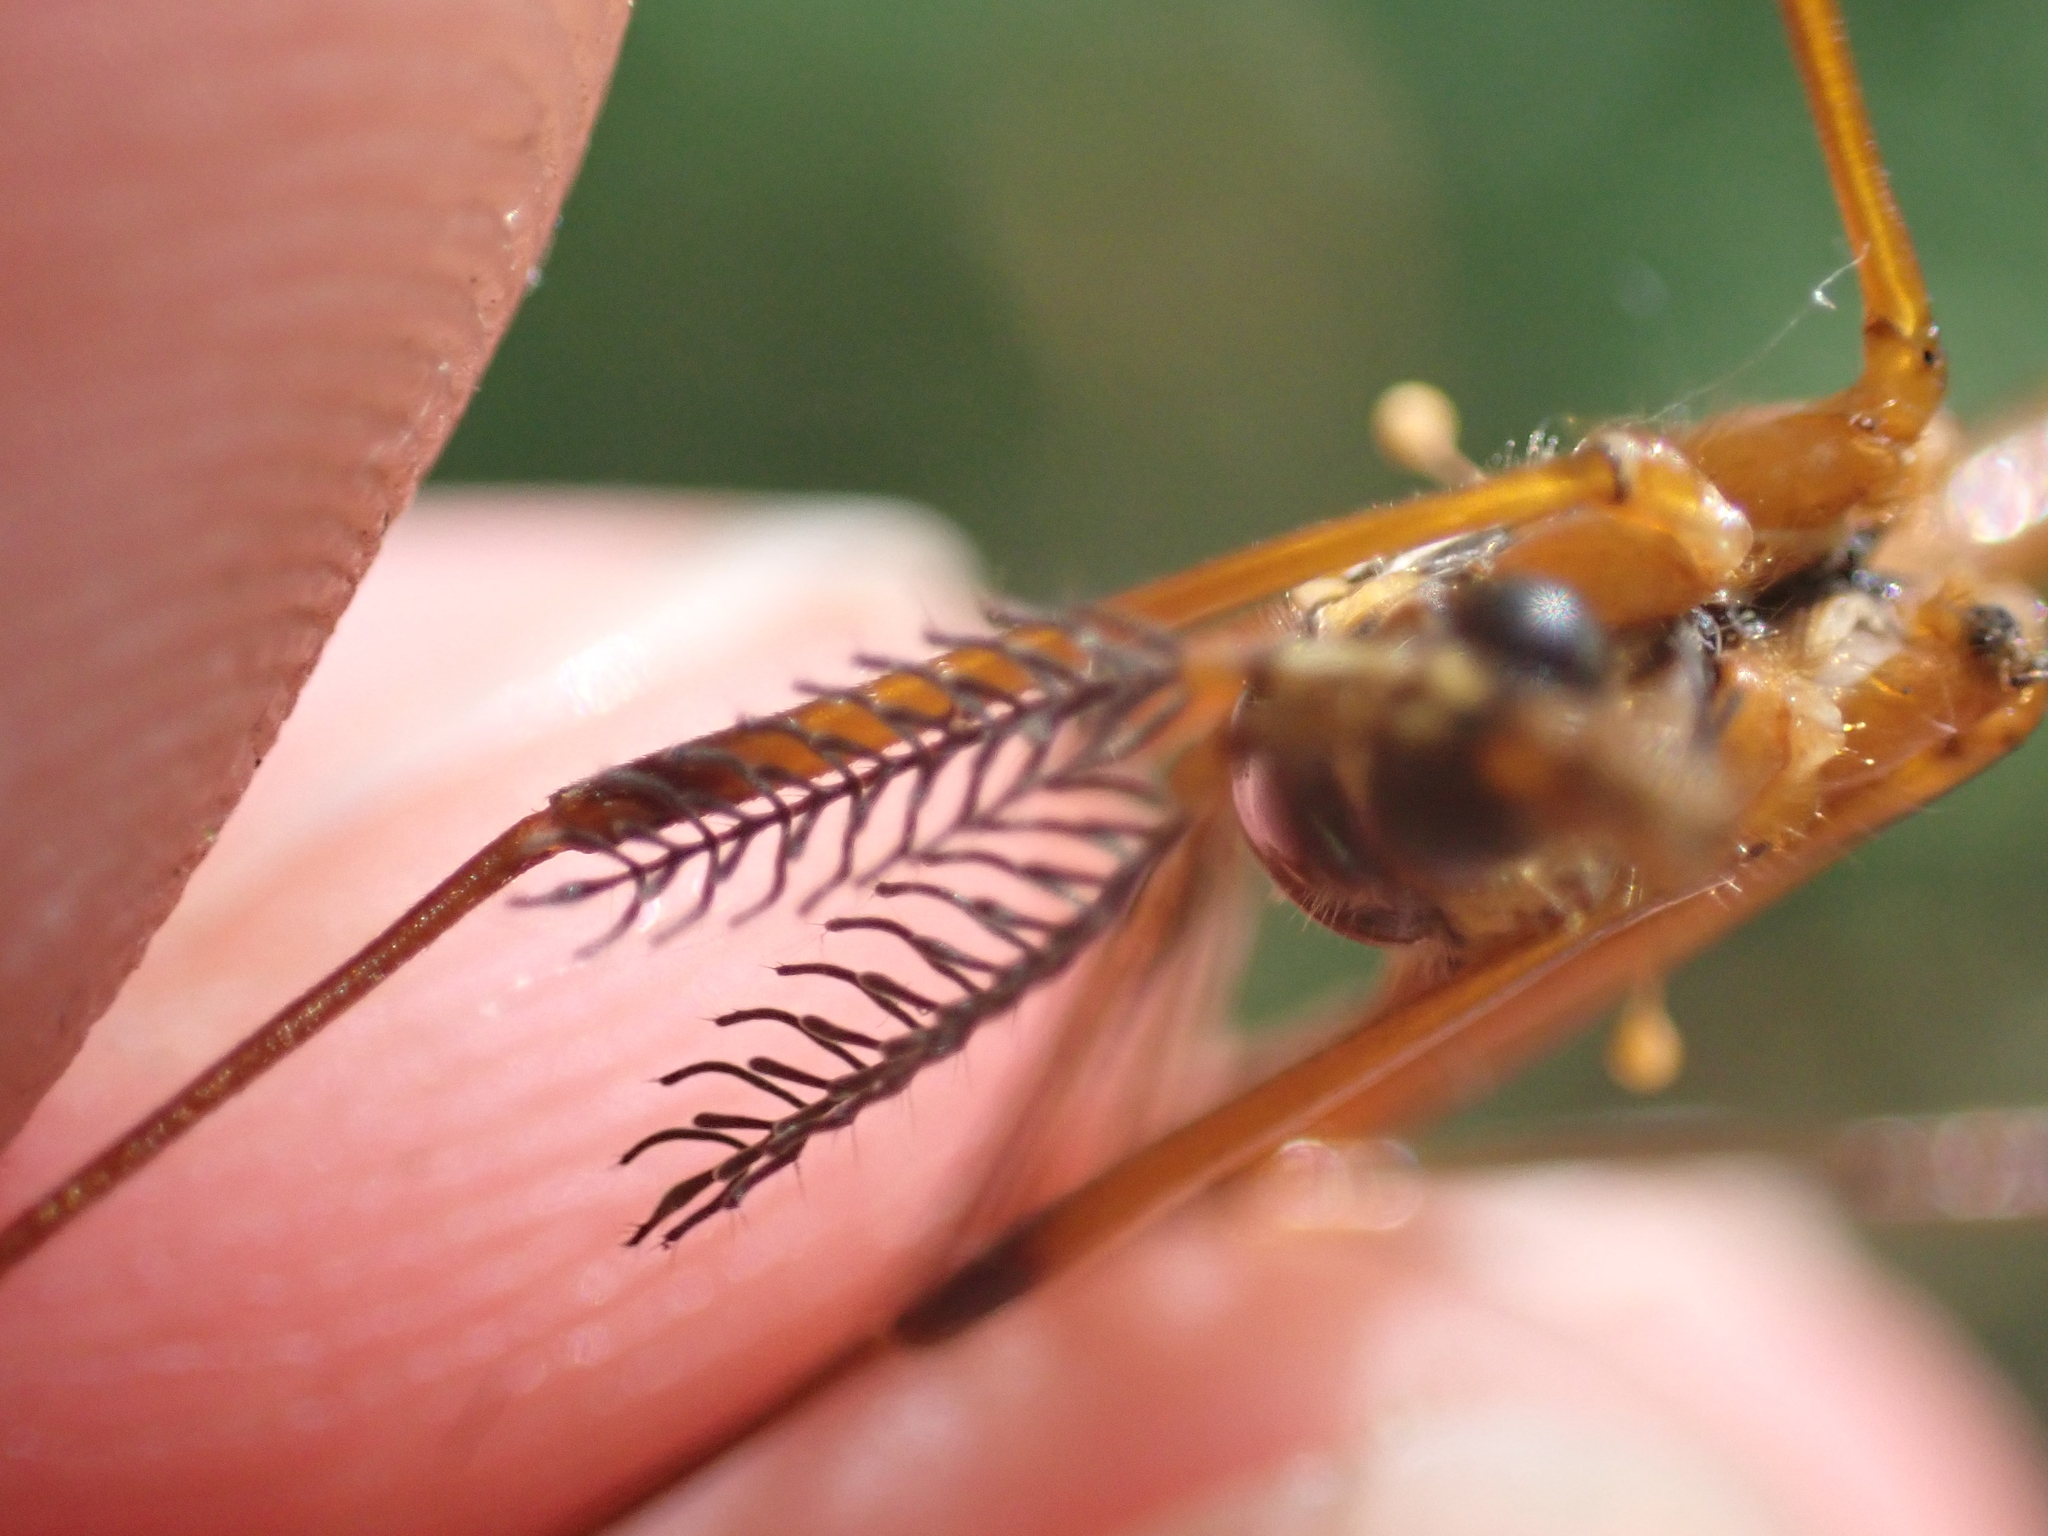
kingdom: Animalia
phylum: Arthropoda
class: Insecta
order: Diptera
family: Tipulidae
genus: Ctenophora
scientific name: Ctenophora guttata
